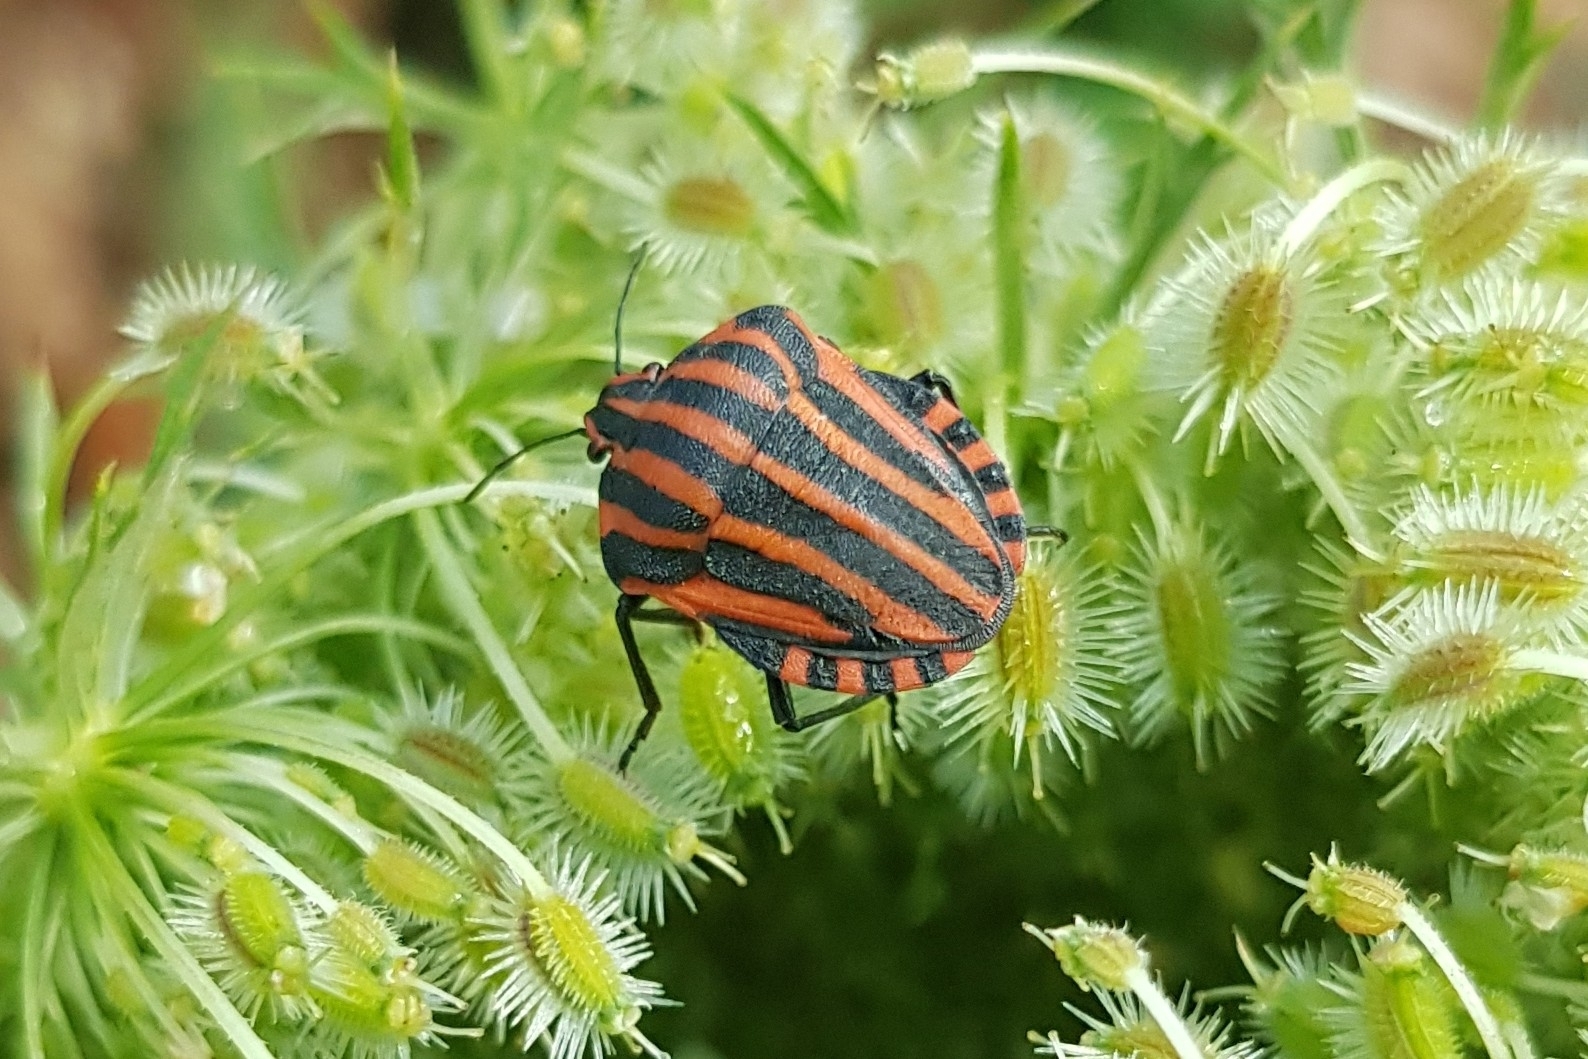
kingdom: Animalia
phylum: Arthropoda
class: Insecta
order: Hemiptera
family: Pentatomidae
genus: Graphosoma
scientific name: Graphosoma italicum
